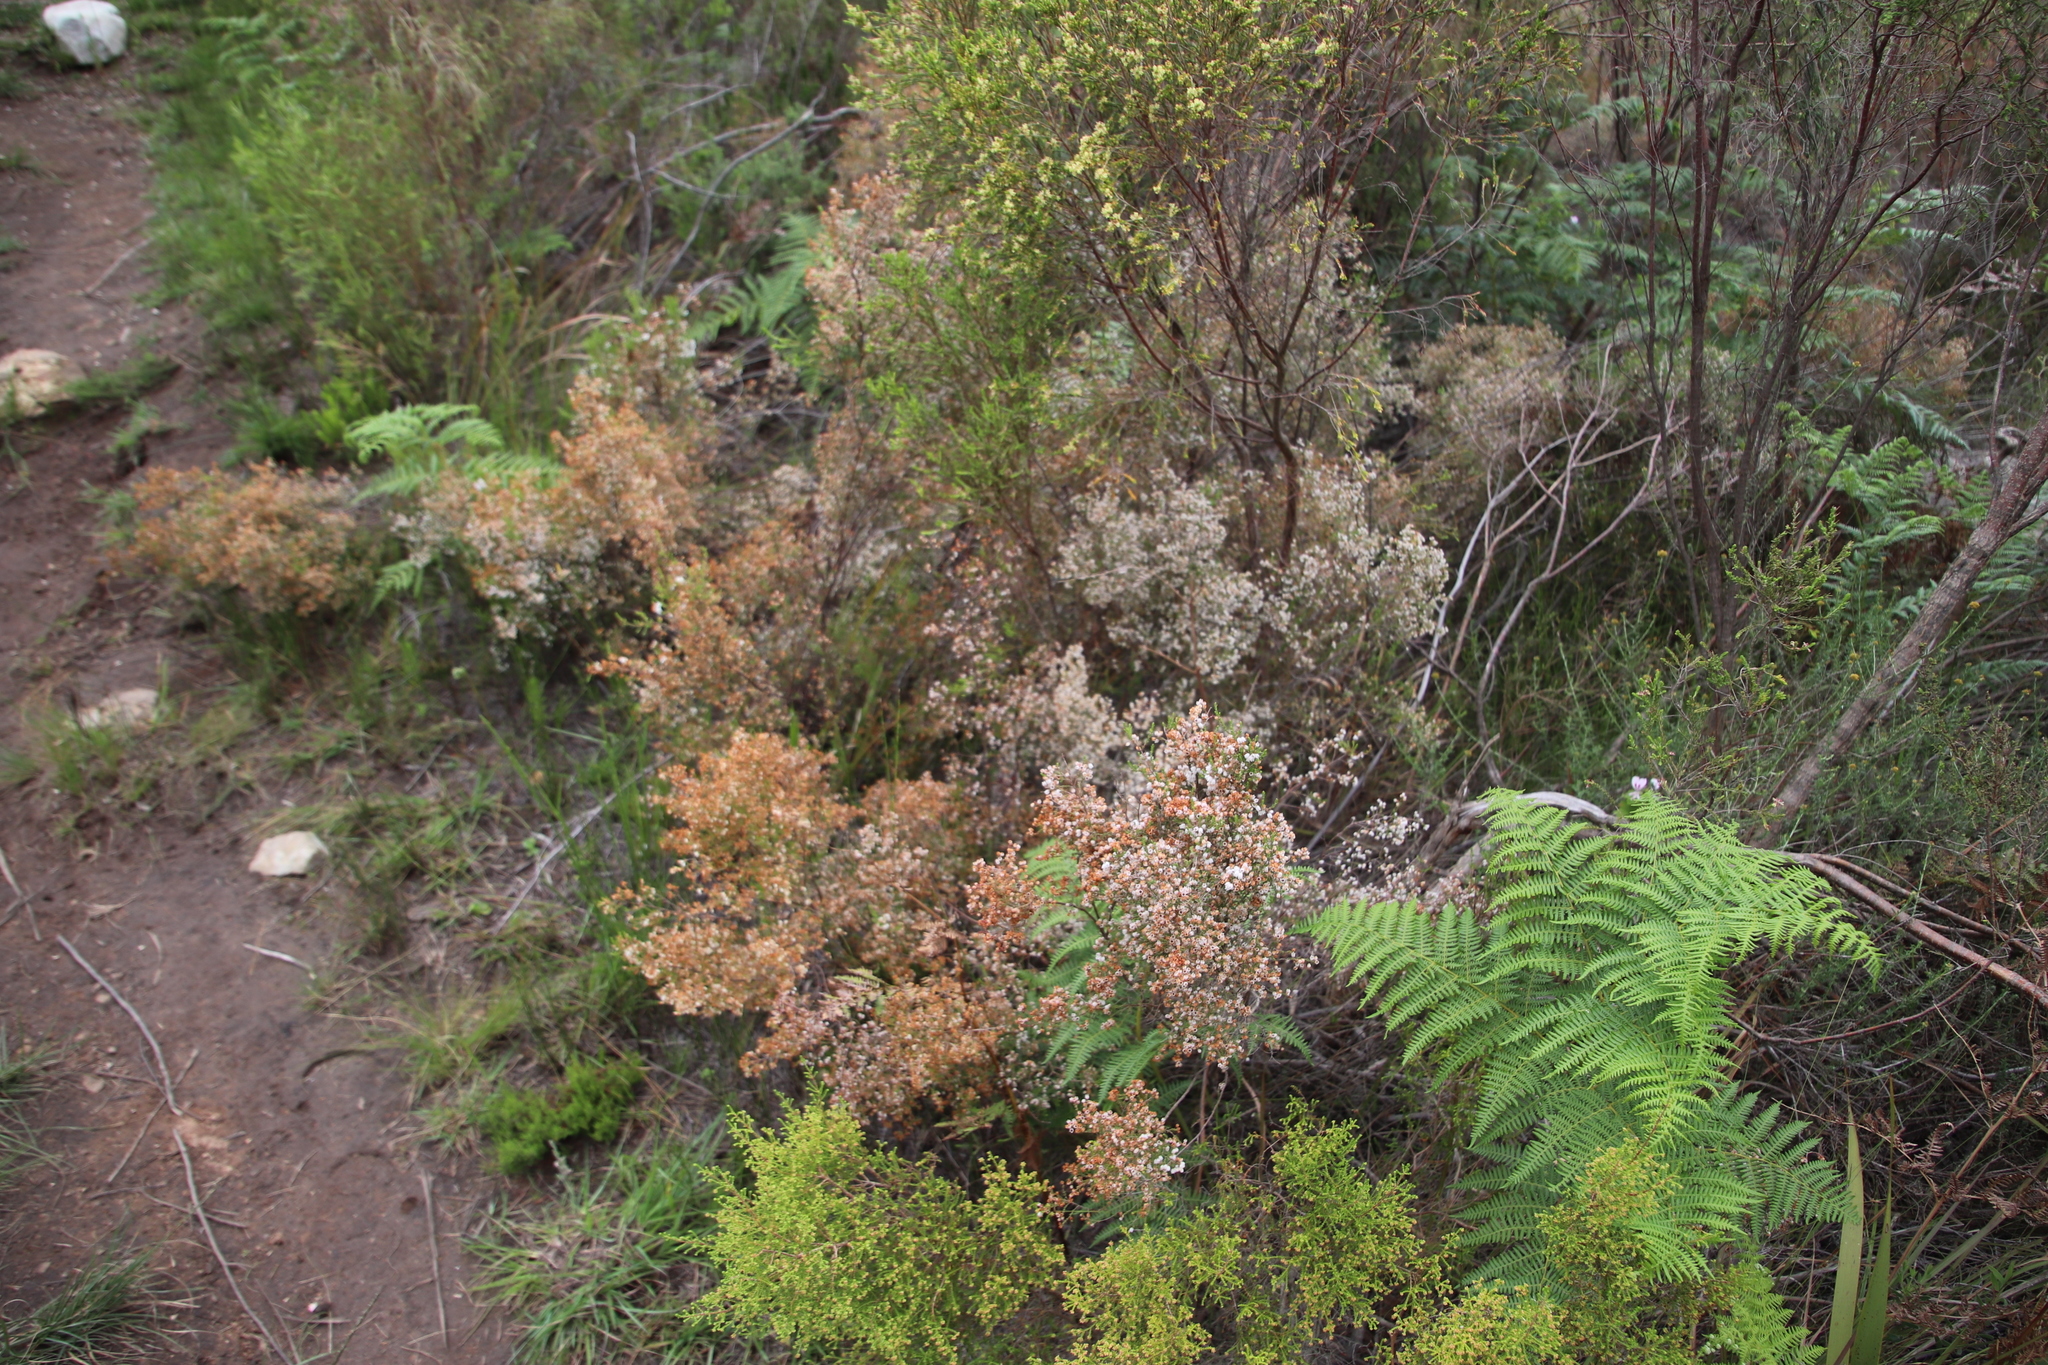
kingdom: Plantae
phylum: Tracheophyta
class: Magnoliopsida
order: Ericales
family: Ericaceae
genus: Erica
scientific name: Erica quadrangularis
